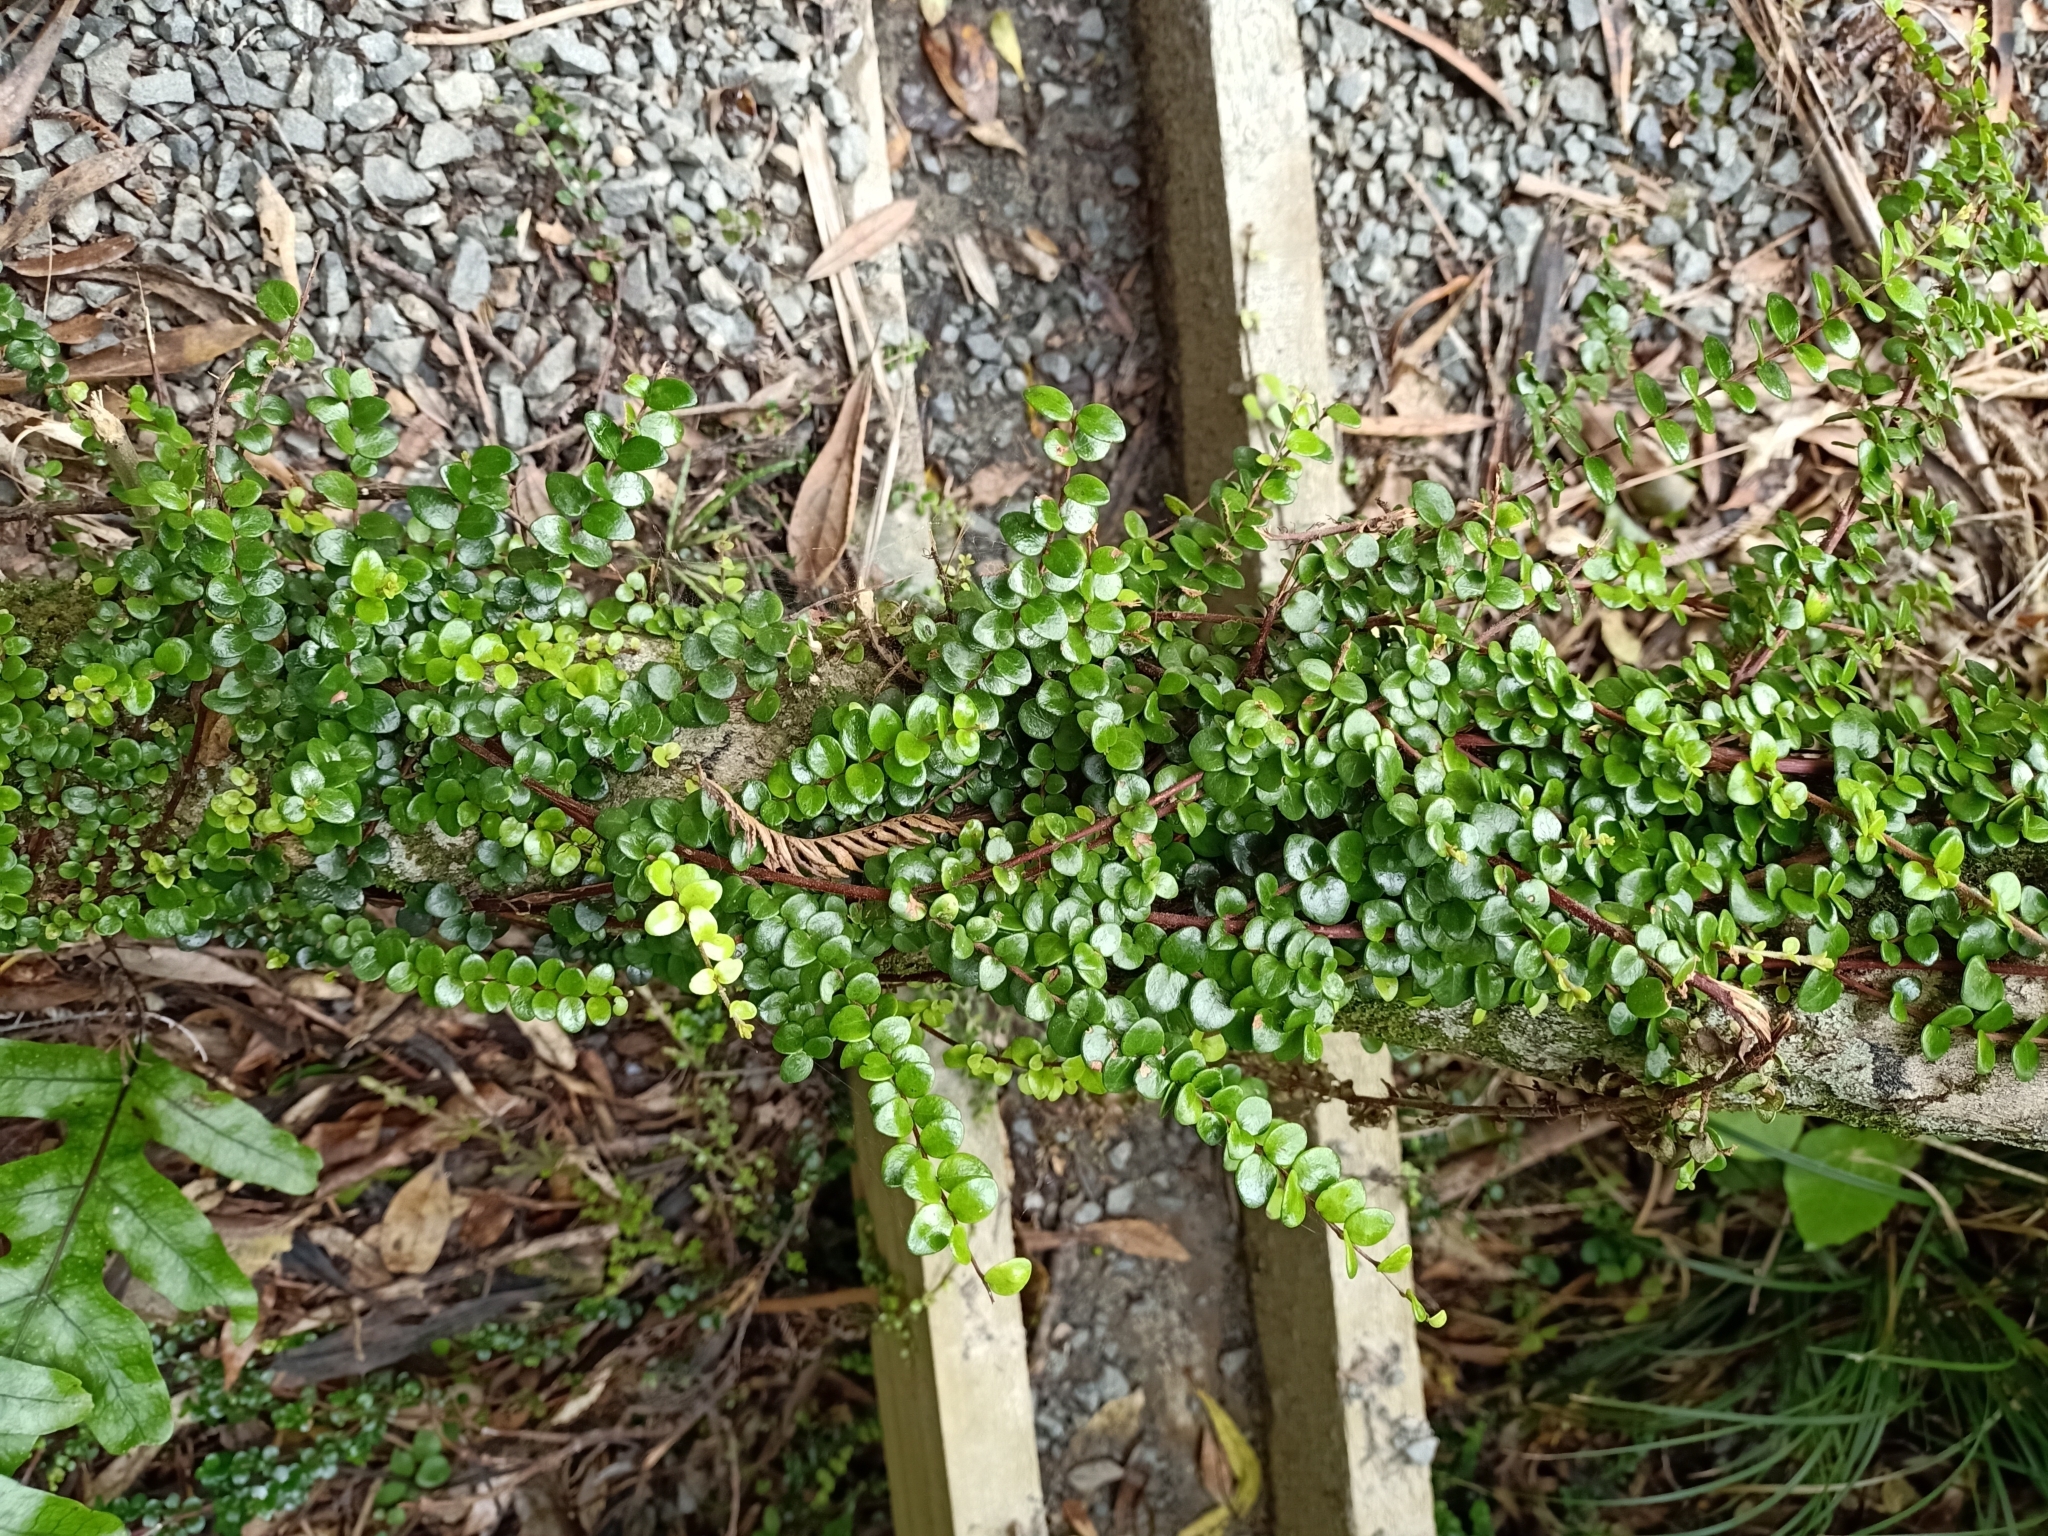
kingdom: Plantae
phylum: Tracheophyta
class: Magnoliopsida
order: Myrtales
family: Myrtaceae
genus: Metrosideros
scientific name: Metrosideros perforata
